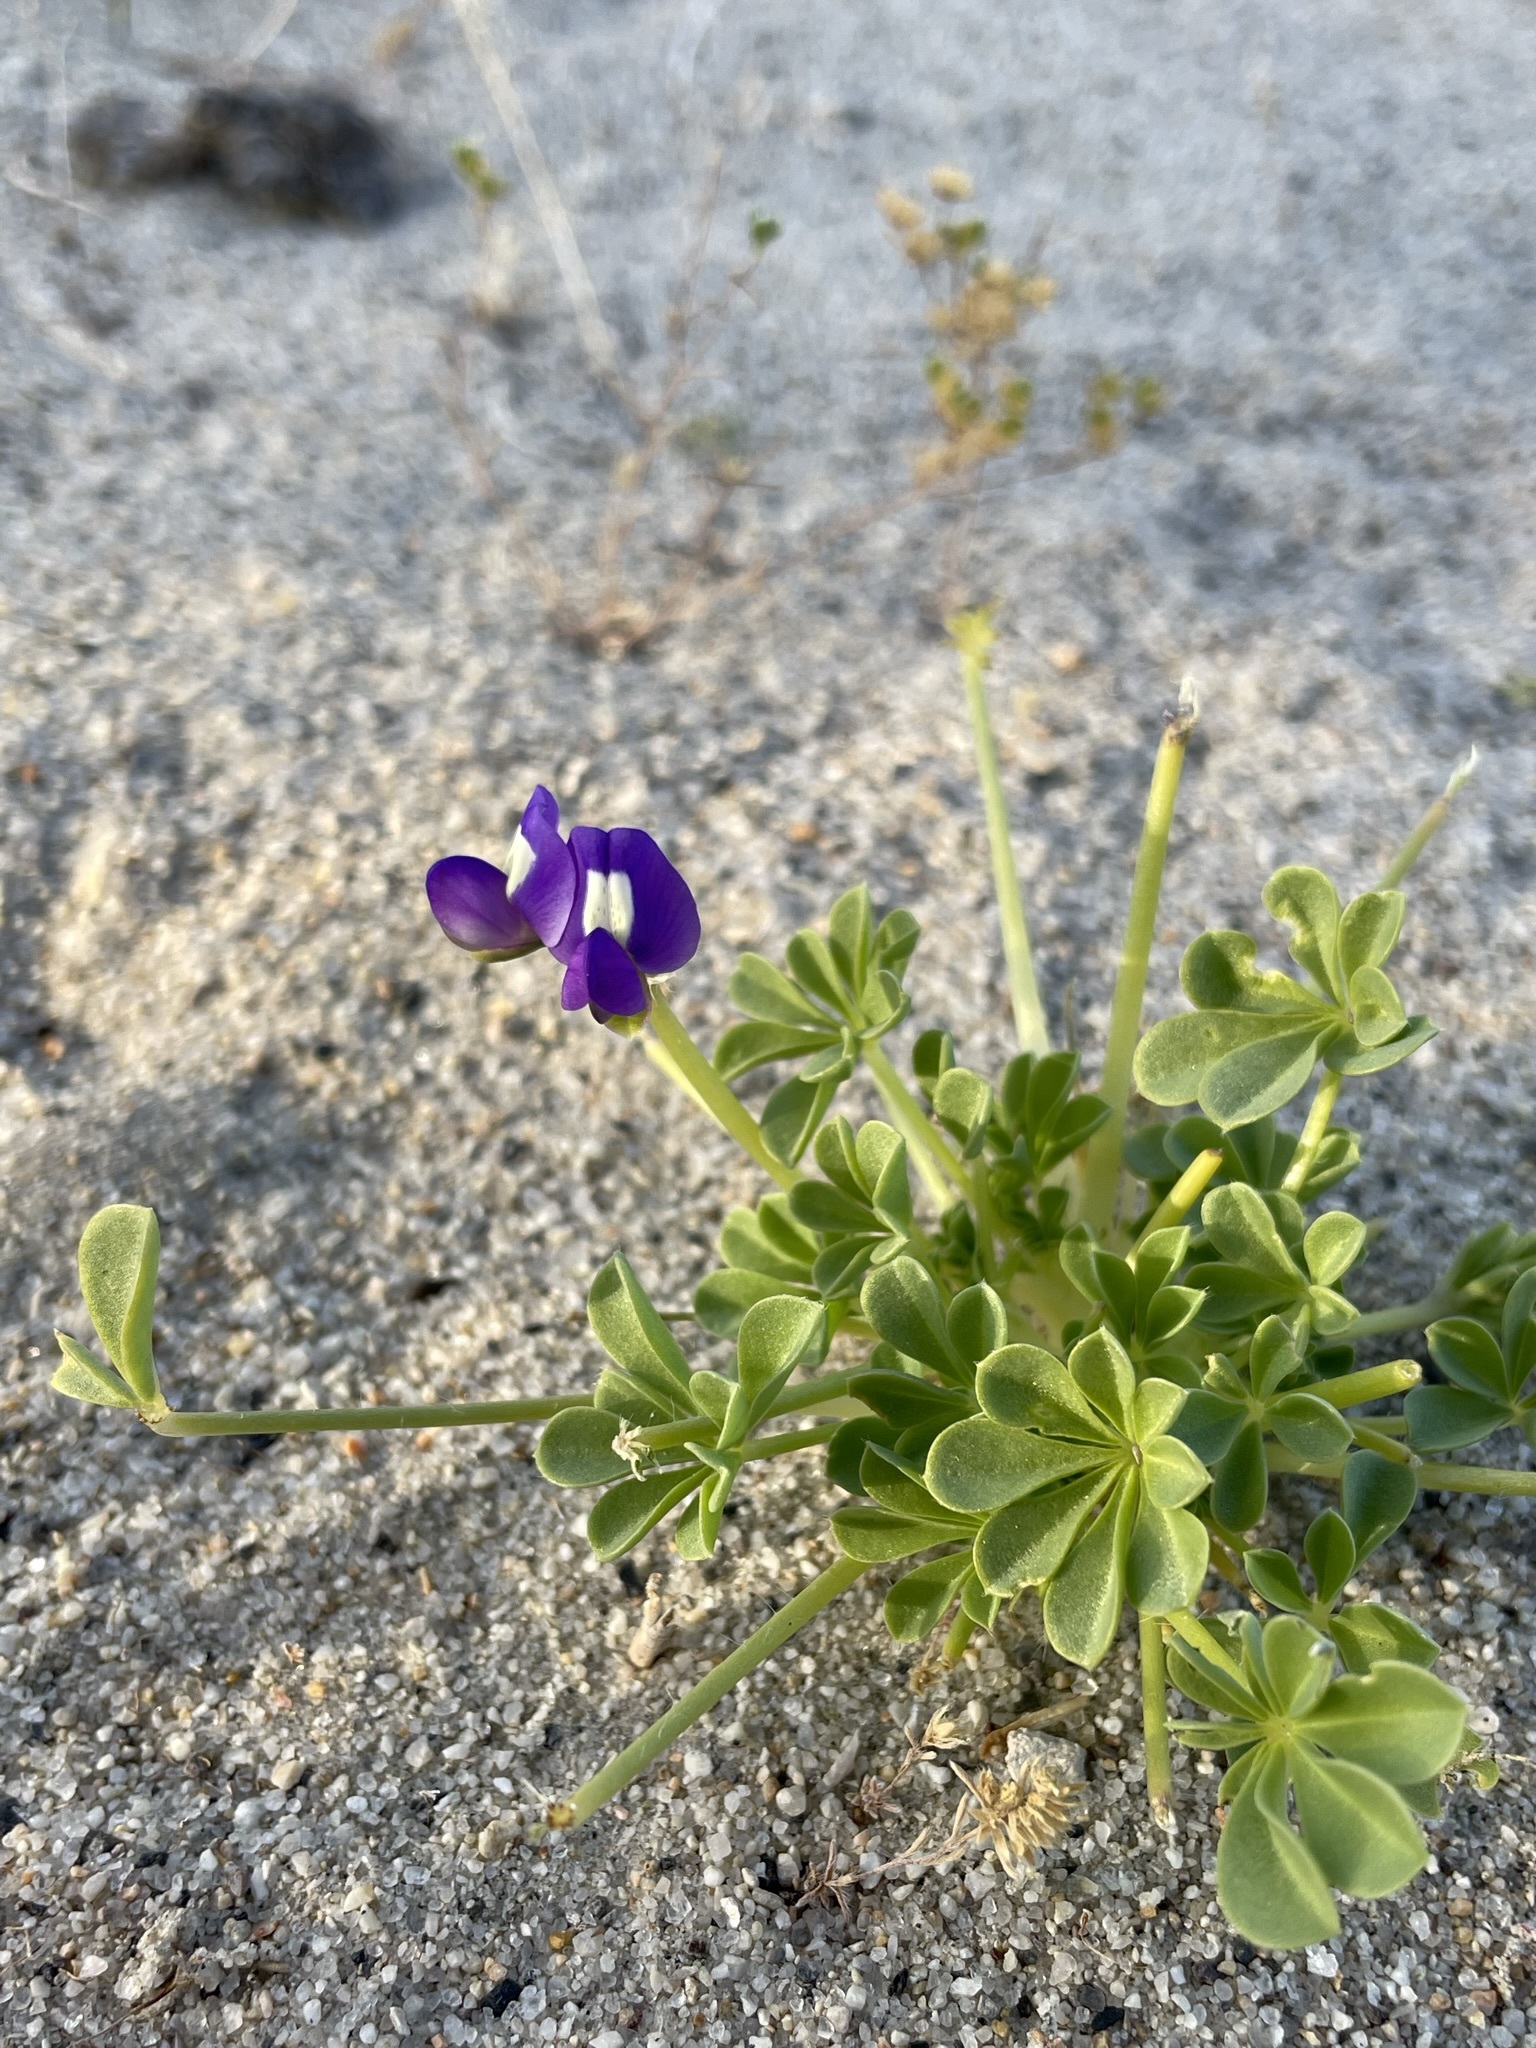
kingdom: Plantae
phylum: Tracheophyta
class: Magnoliopsida
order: Fabales
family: Fabaceae
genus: Lupinus
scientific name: Lupinus
